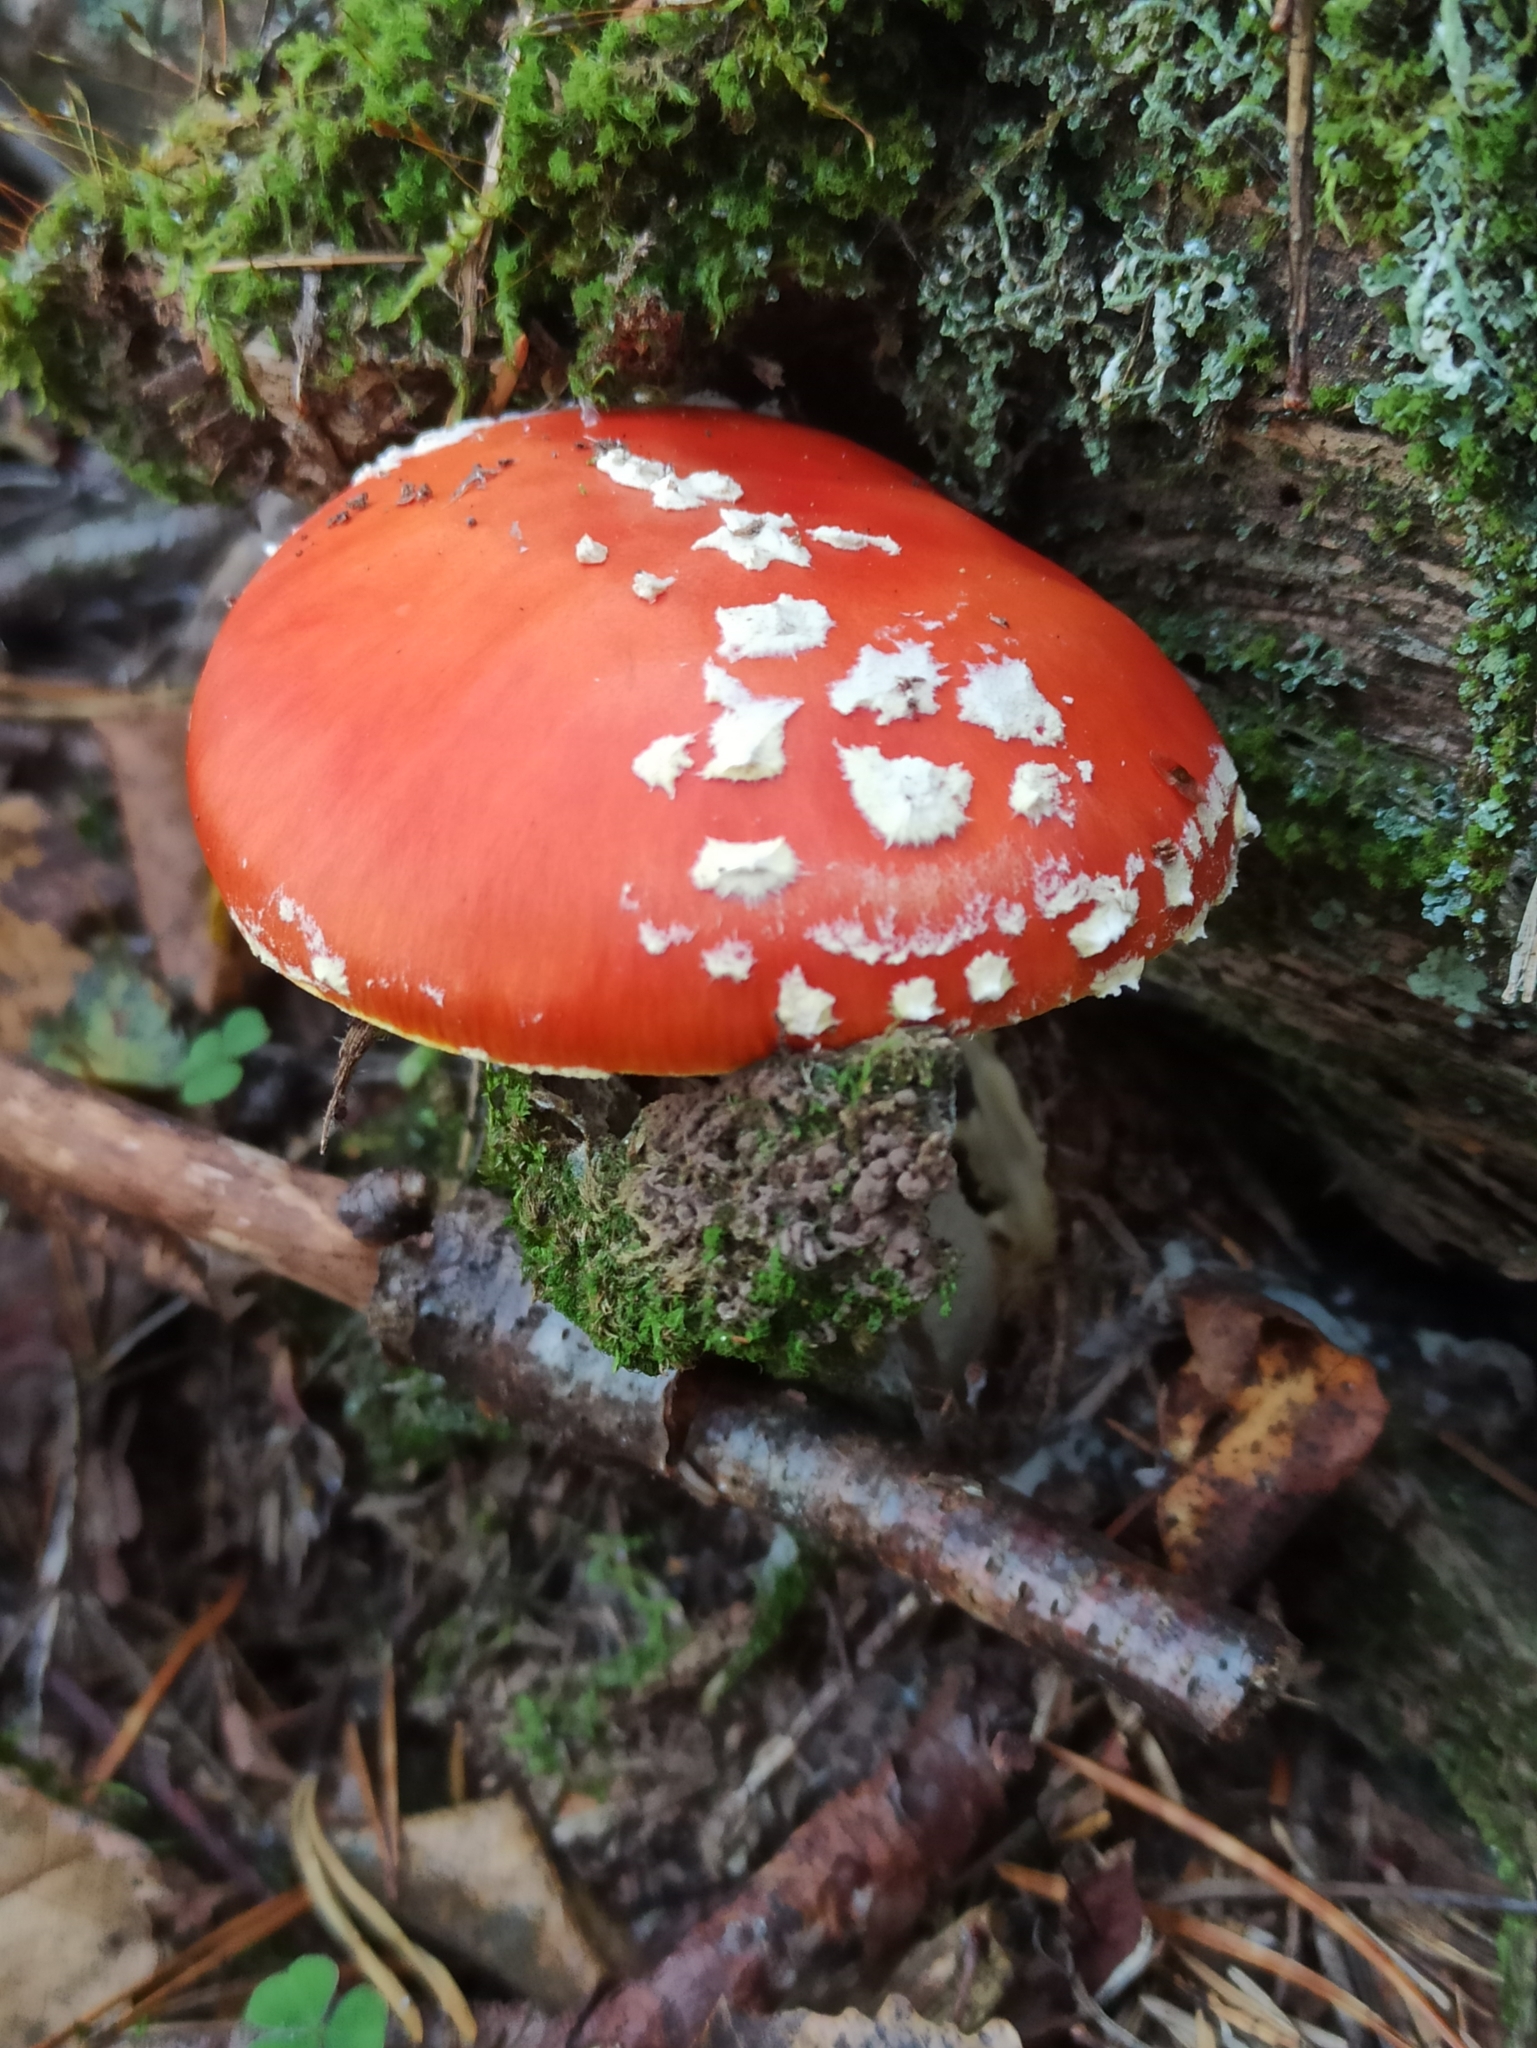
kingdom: Fungi
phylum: Basidiomycota
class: Agaricomycetes
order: Agaricales
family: Amanitaceae
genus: Amanita
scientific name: Amanita muscaria
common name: Fly agaric
